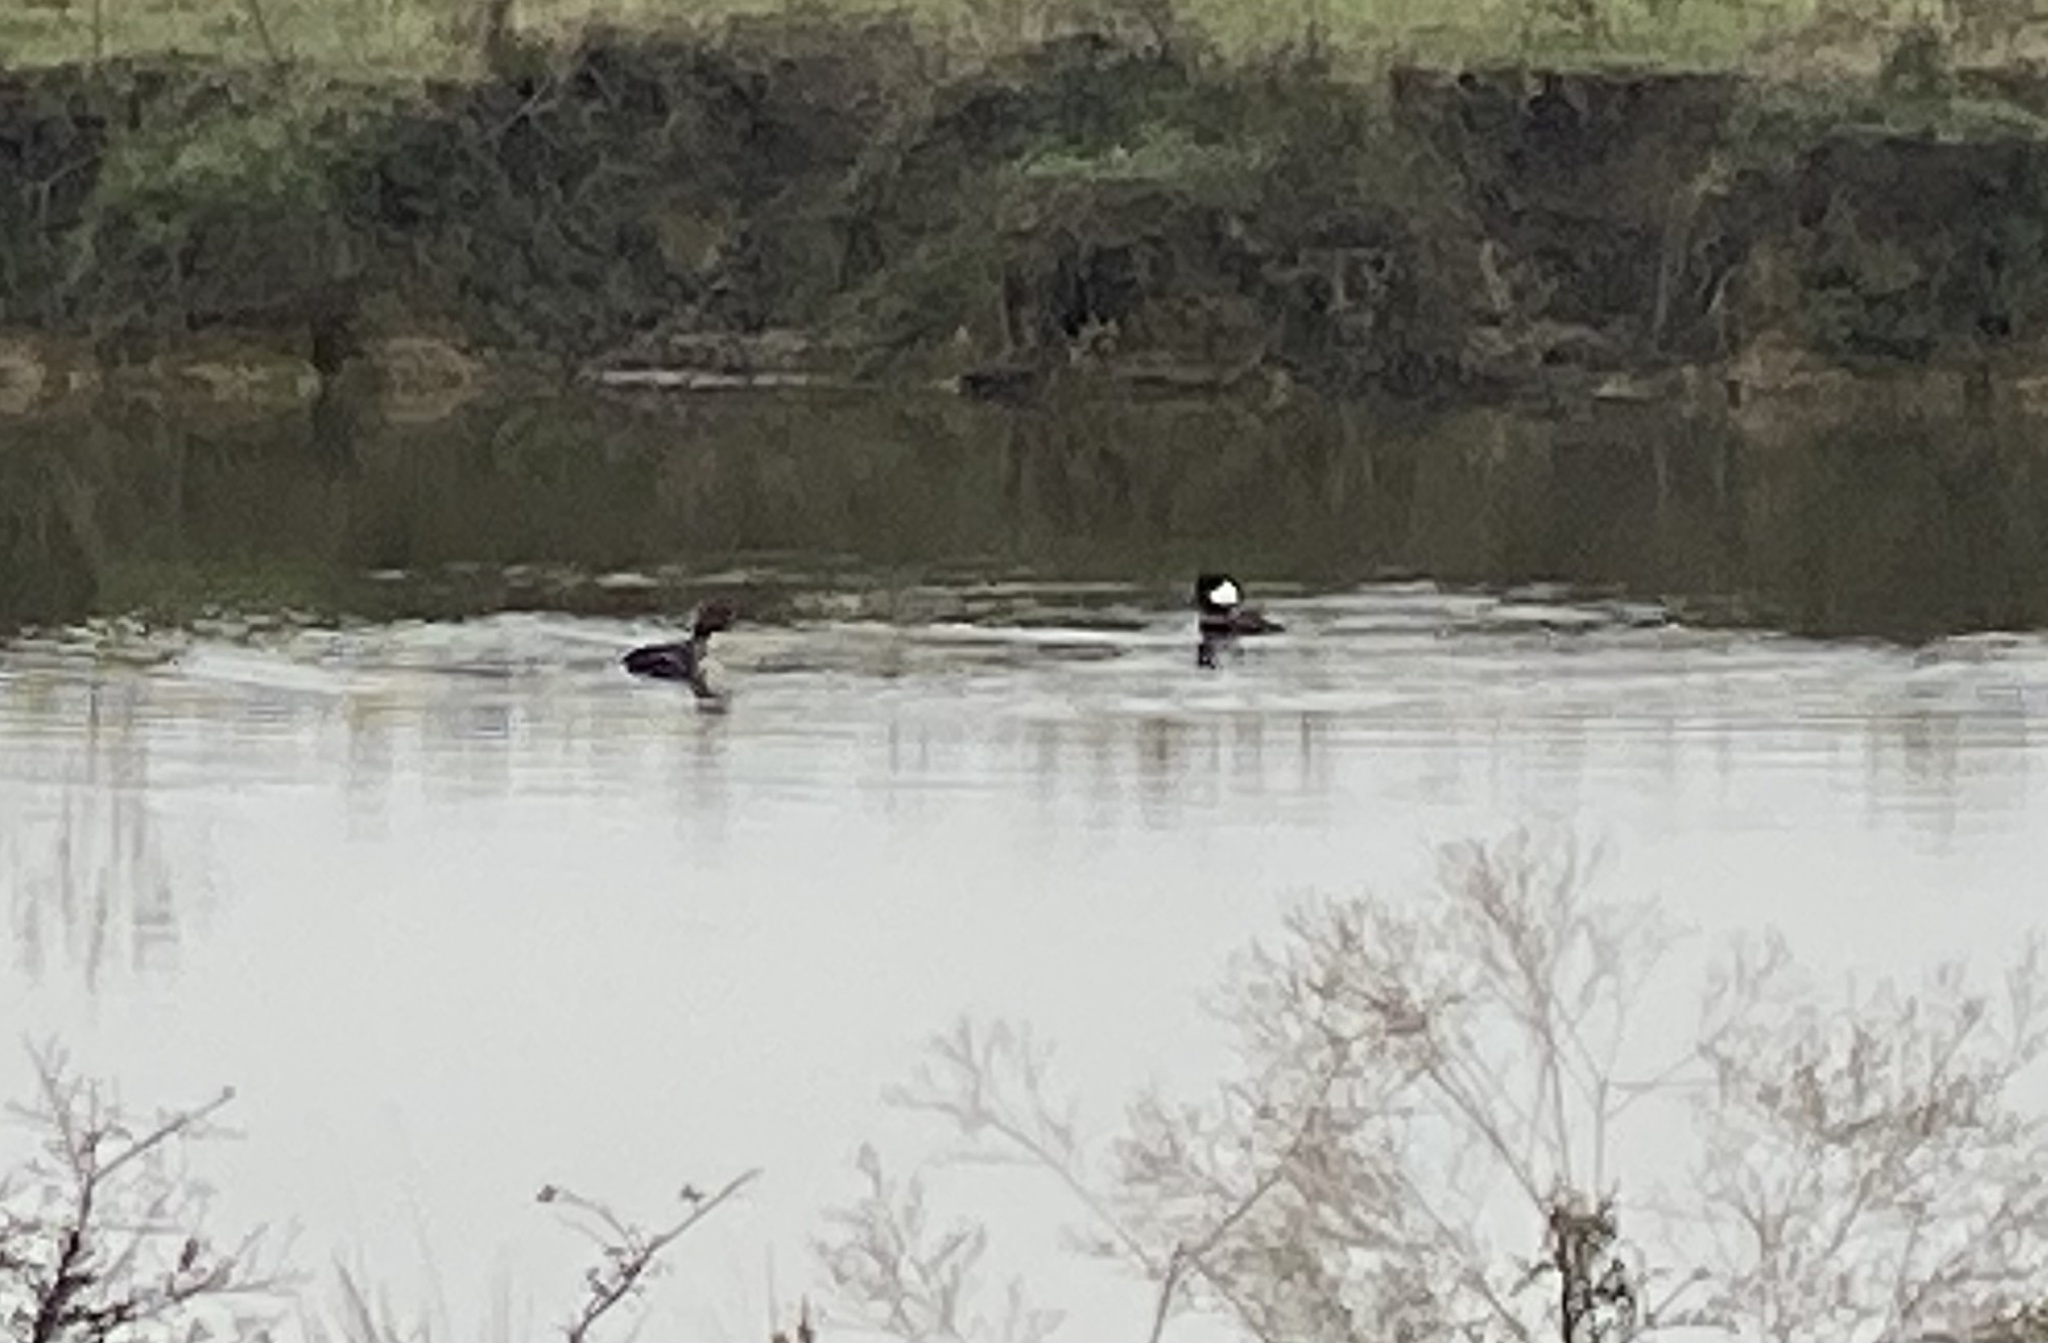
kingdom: Animalia
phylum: Chordata
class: Aves
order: Anseriformes
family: Anatidae
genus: Lophodytes
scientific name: Lophodytes cucullatus
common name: Hooded merganser
